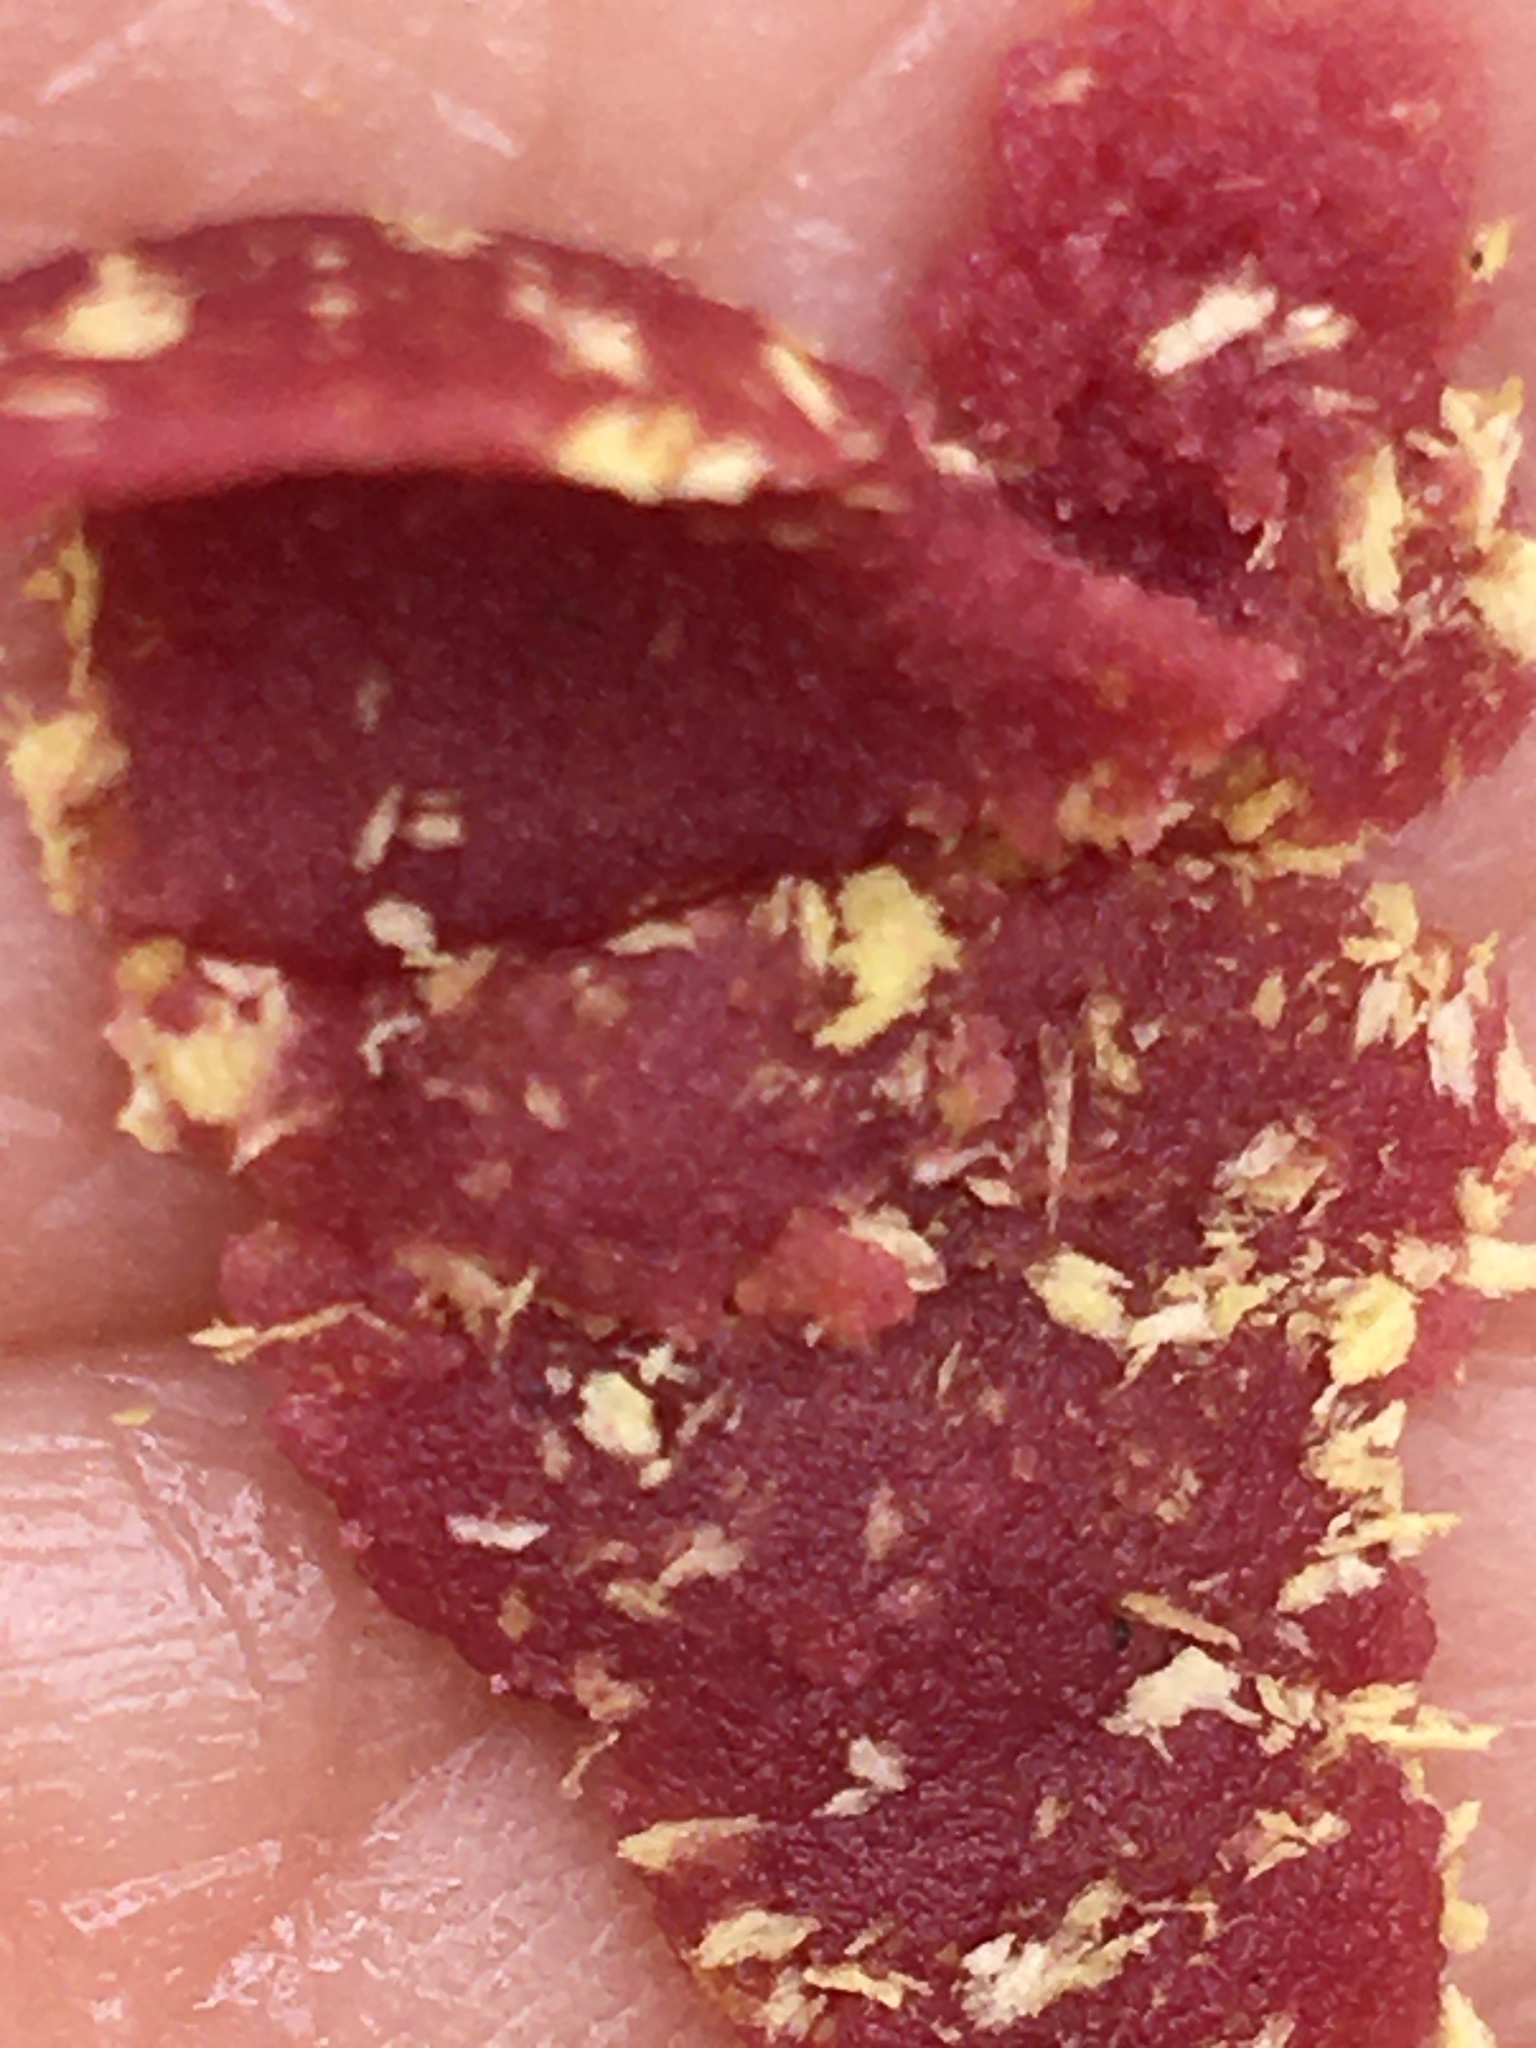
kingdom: Animalia
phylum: Arthropoda
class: Insecta
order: Hymenoptera
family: Apidae
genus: Xylocopa
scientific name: Xylocopa virginica
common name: Carpenter bee
